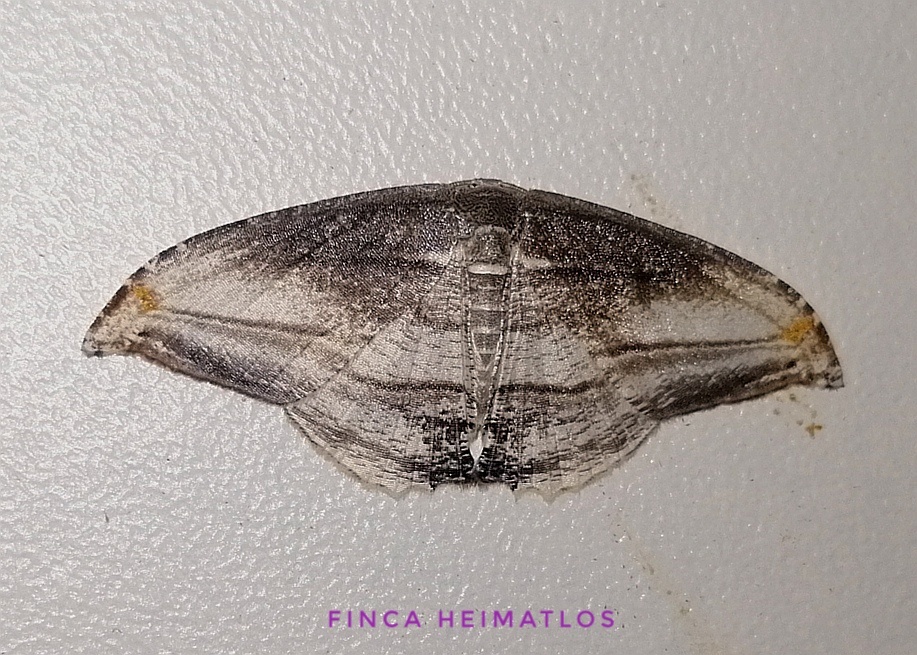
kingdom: Animalia
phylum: Arthropoda
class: Insecta
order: Lepidoptera
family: Uraniidae
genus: Morphomima
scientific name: Morphomima fulvitacta
